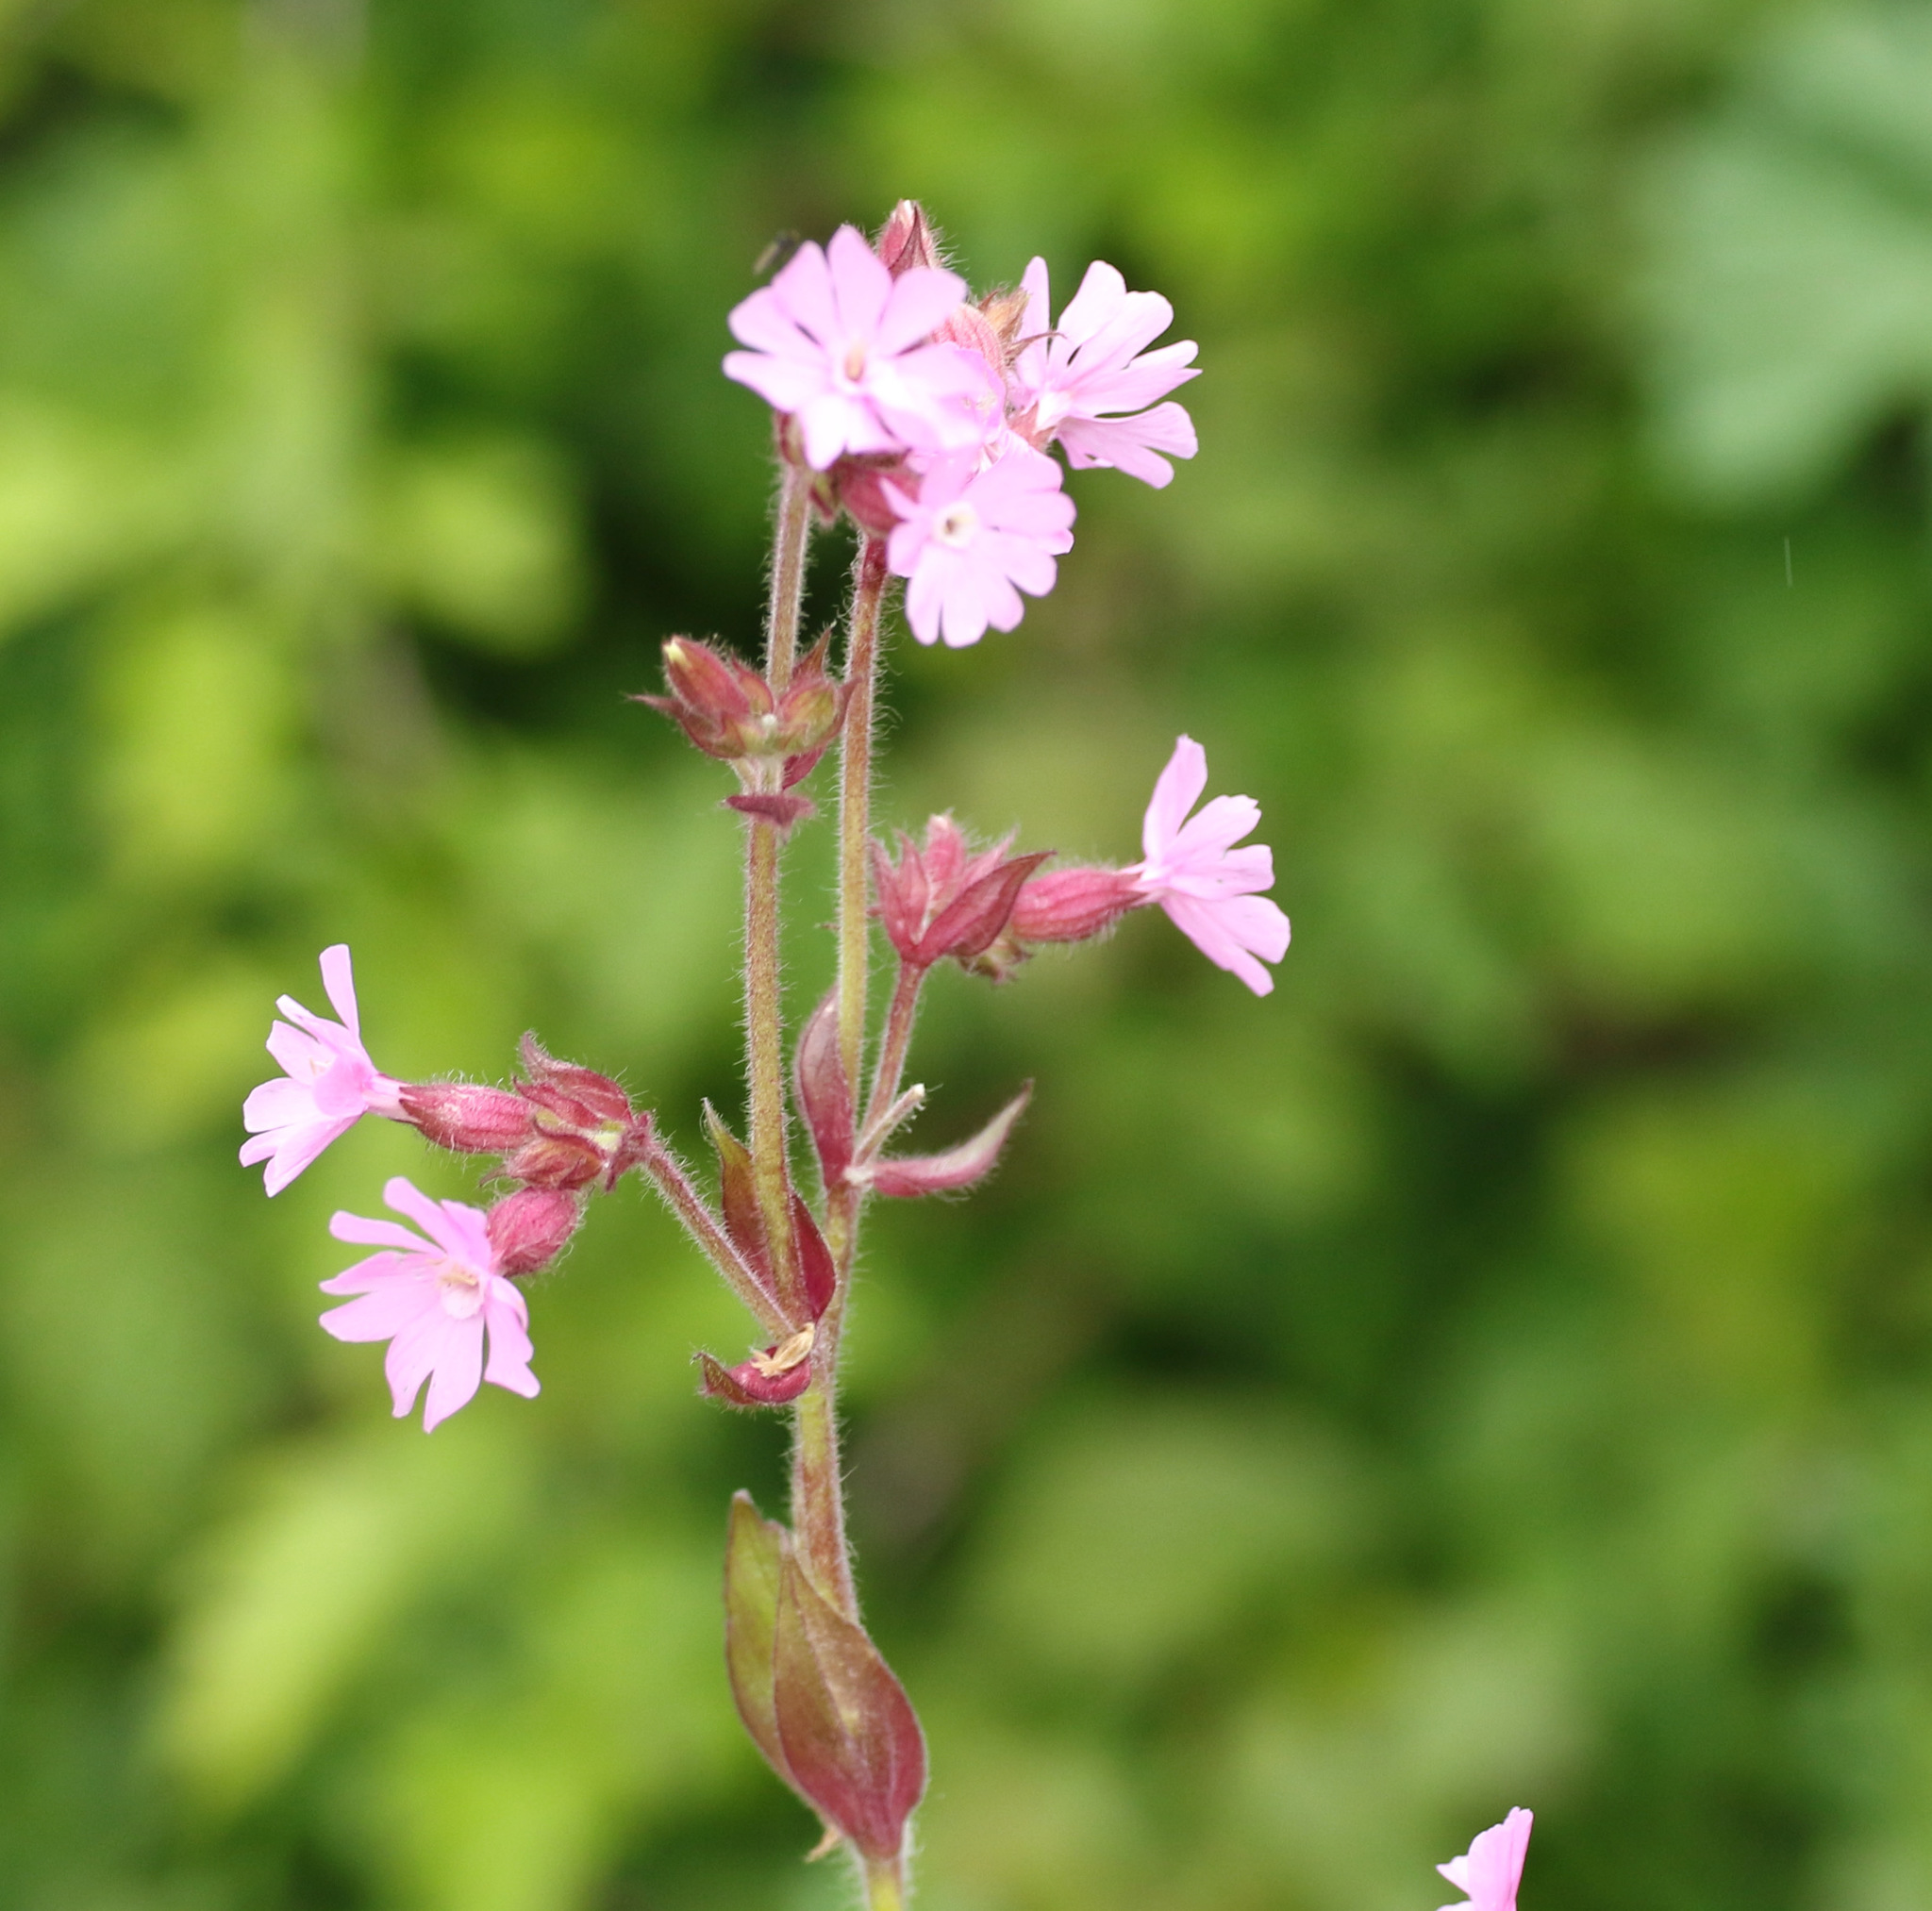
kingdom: Plantae
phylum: Tracheophyta
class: Magnoliopsida
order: Caryophyllales
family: Caryophyllaceae
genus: Silene
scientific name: Silene dioica
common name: Red campion
